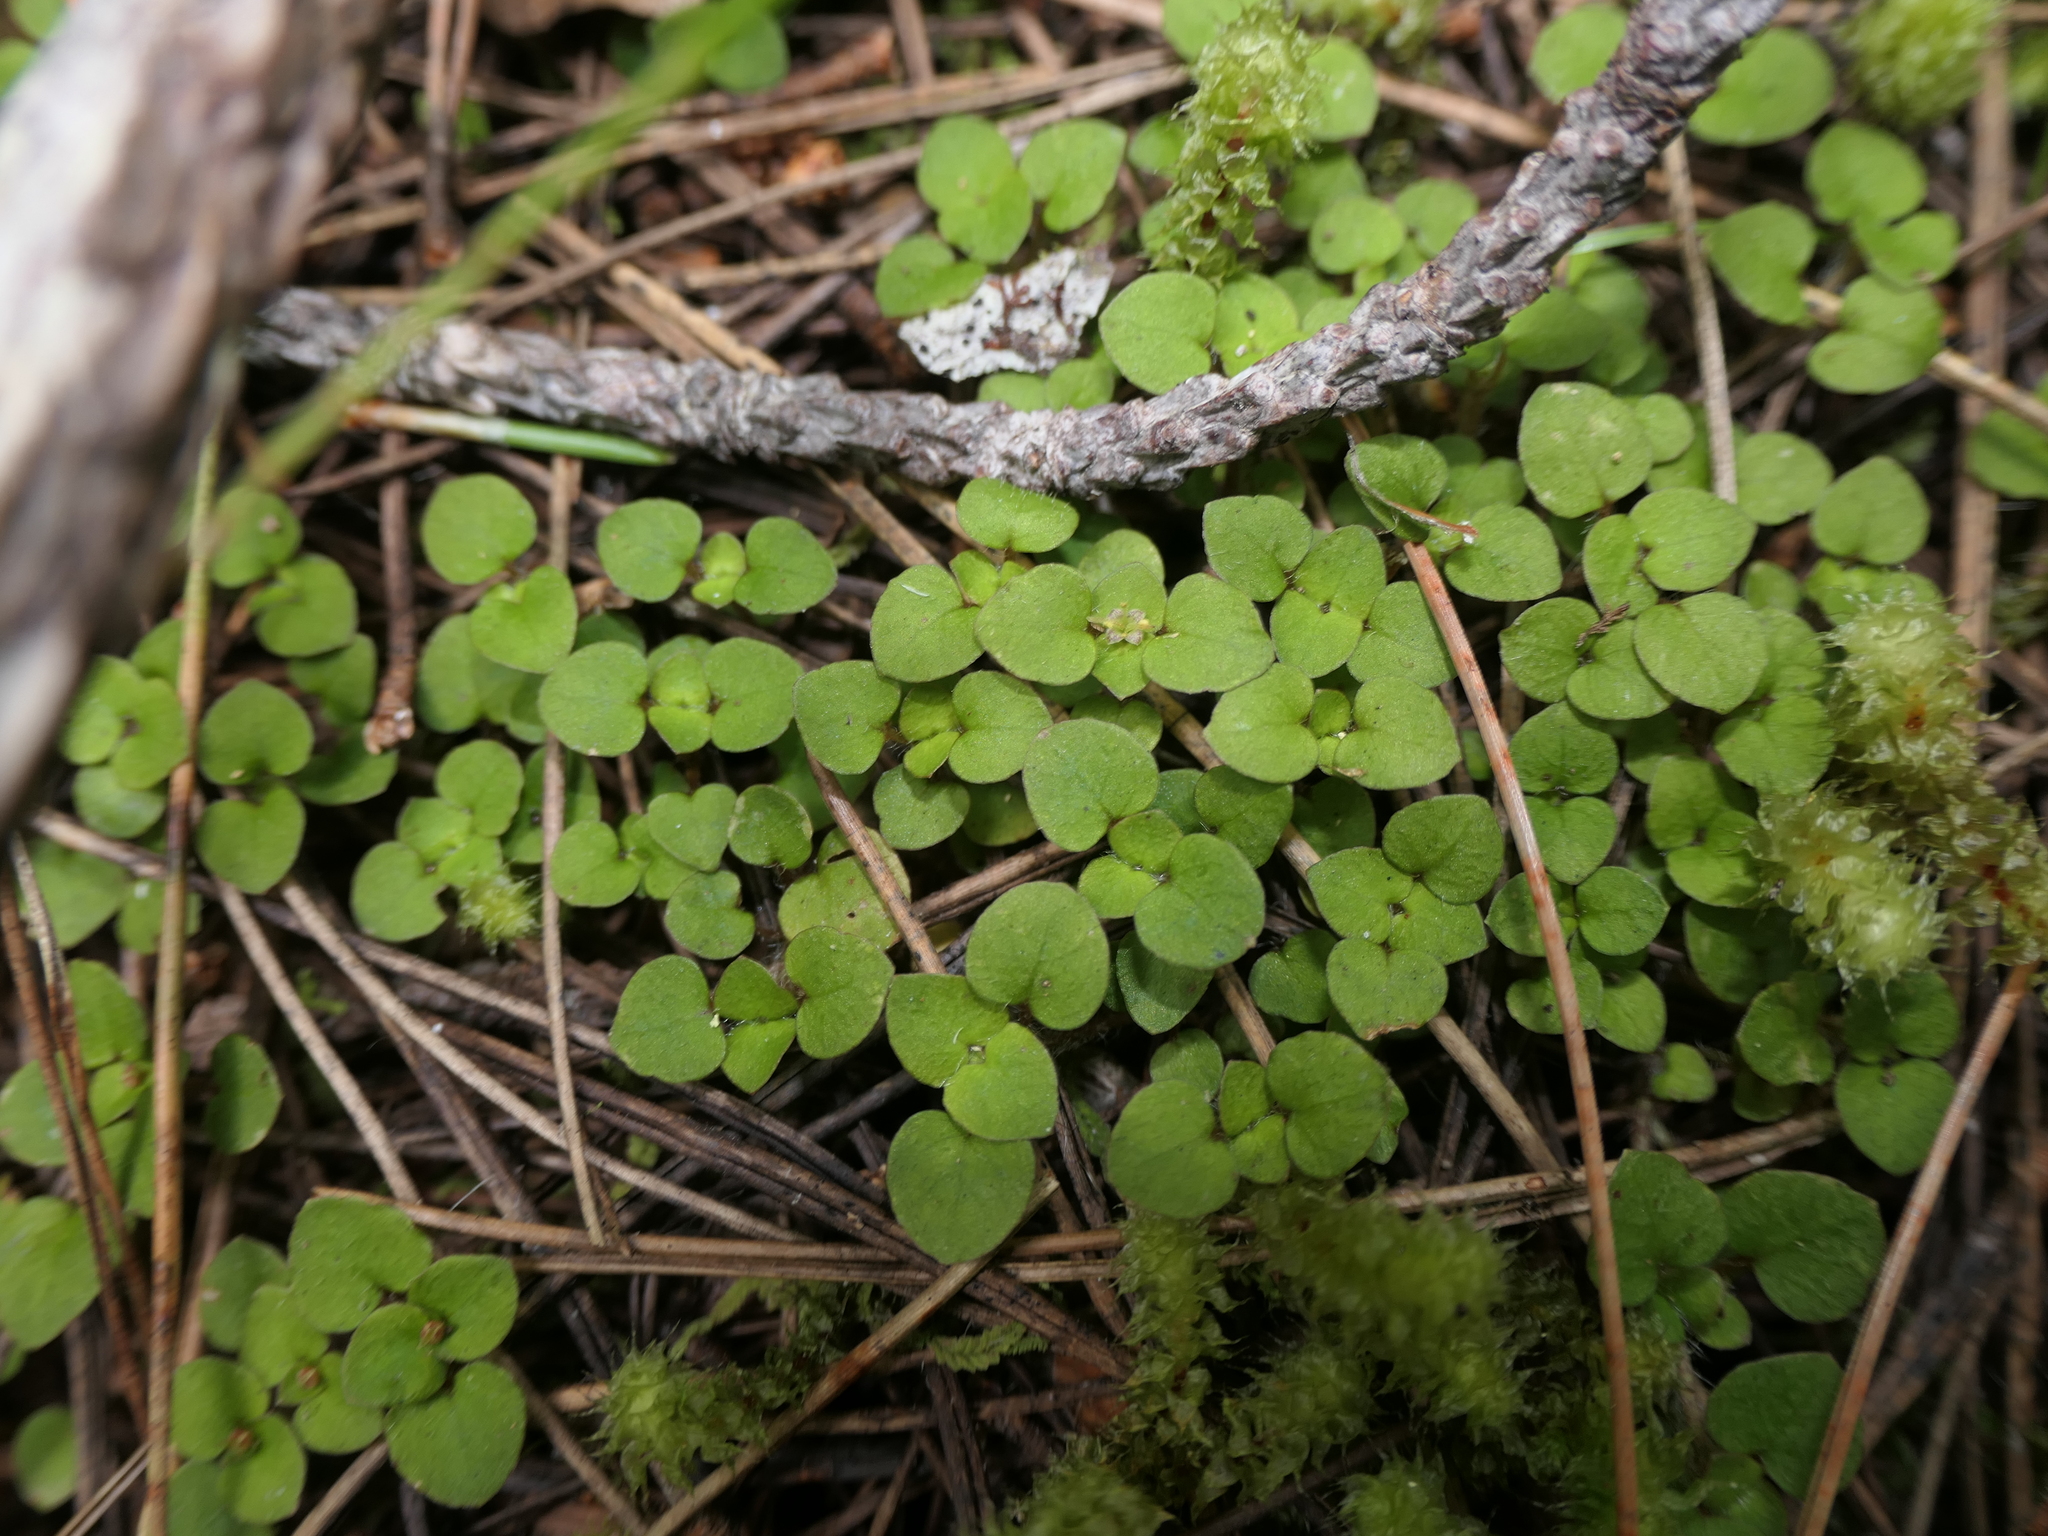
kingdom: Plantae
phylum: Tracheophyta
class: Magnoliopsida
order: Gentianales
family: Rubiaceae
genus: Nertera
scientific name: Nertera villosa
